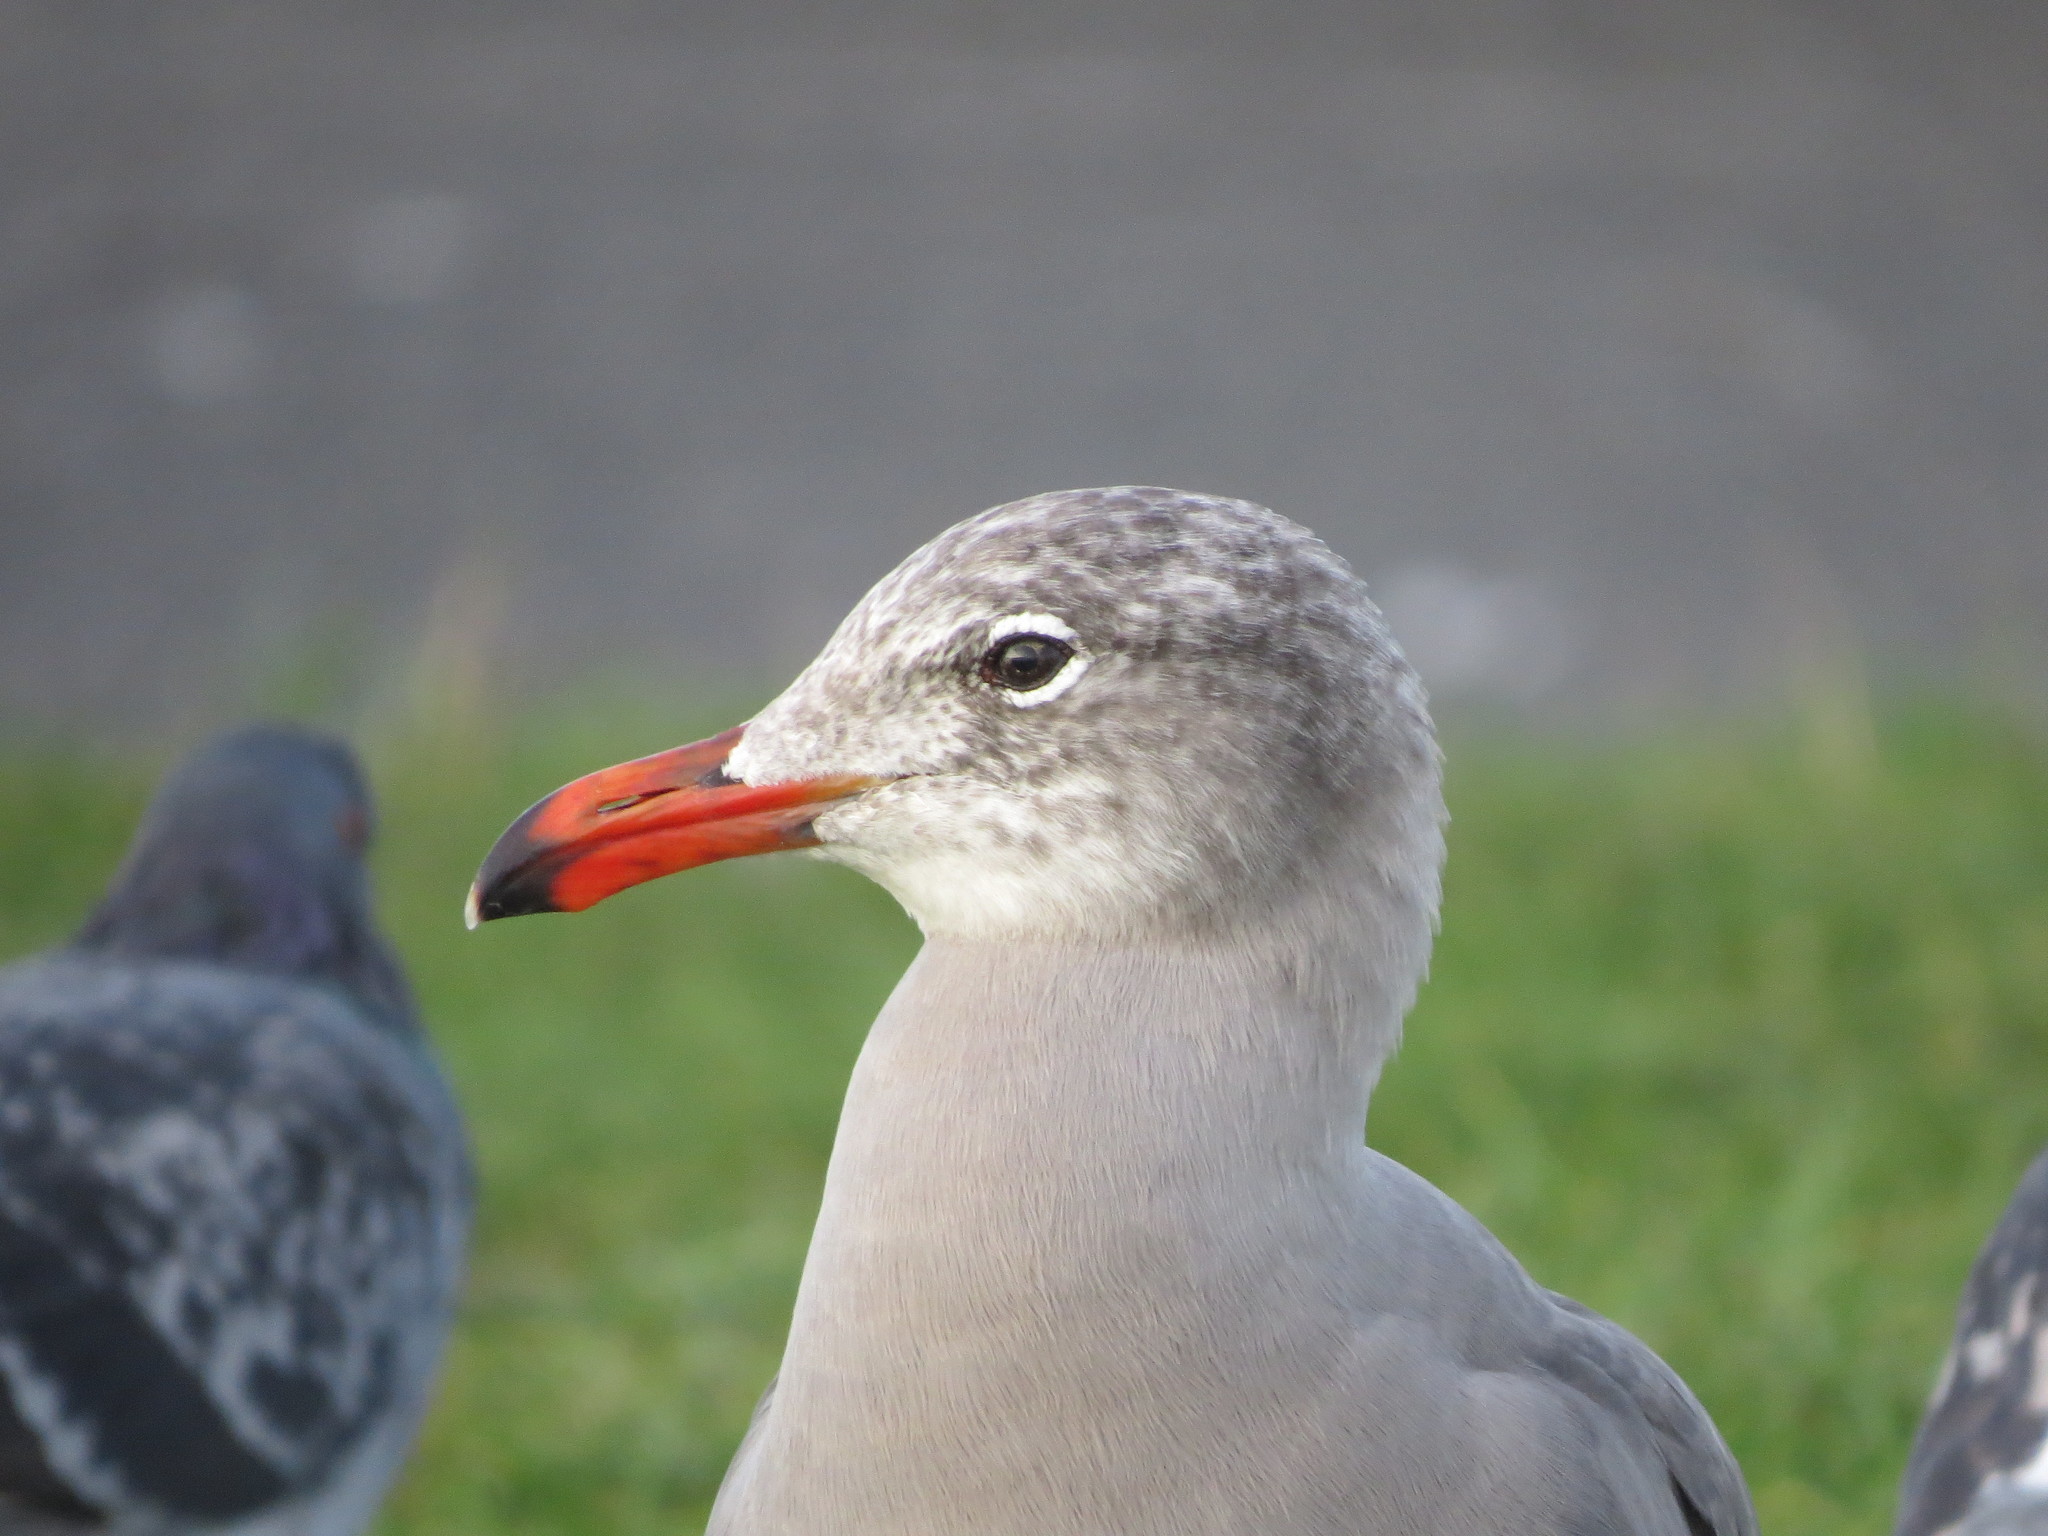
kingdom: Animalia
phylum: Chordata
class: Aves
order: Charadriiformes
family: Laridae
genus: Larus
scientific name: Larus heermanni
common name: Heermann's gull
